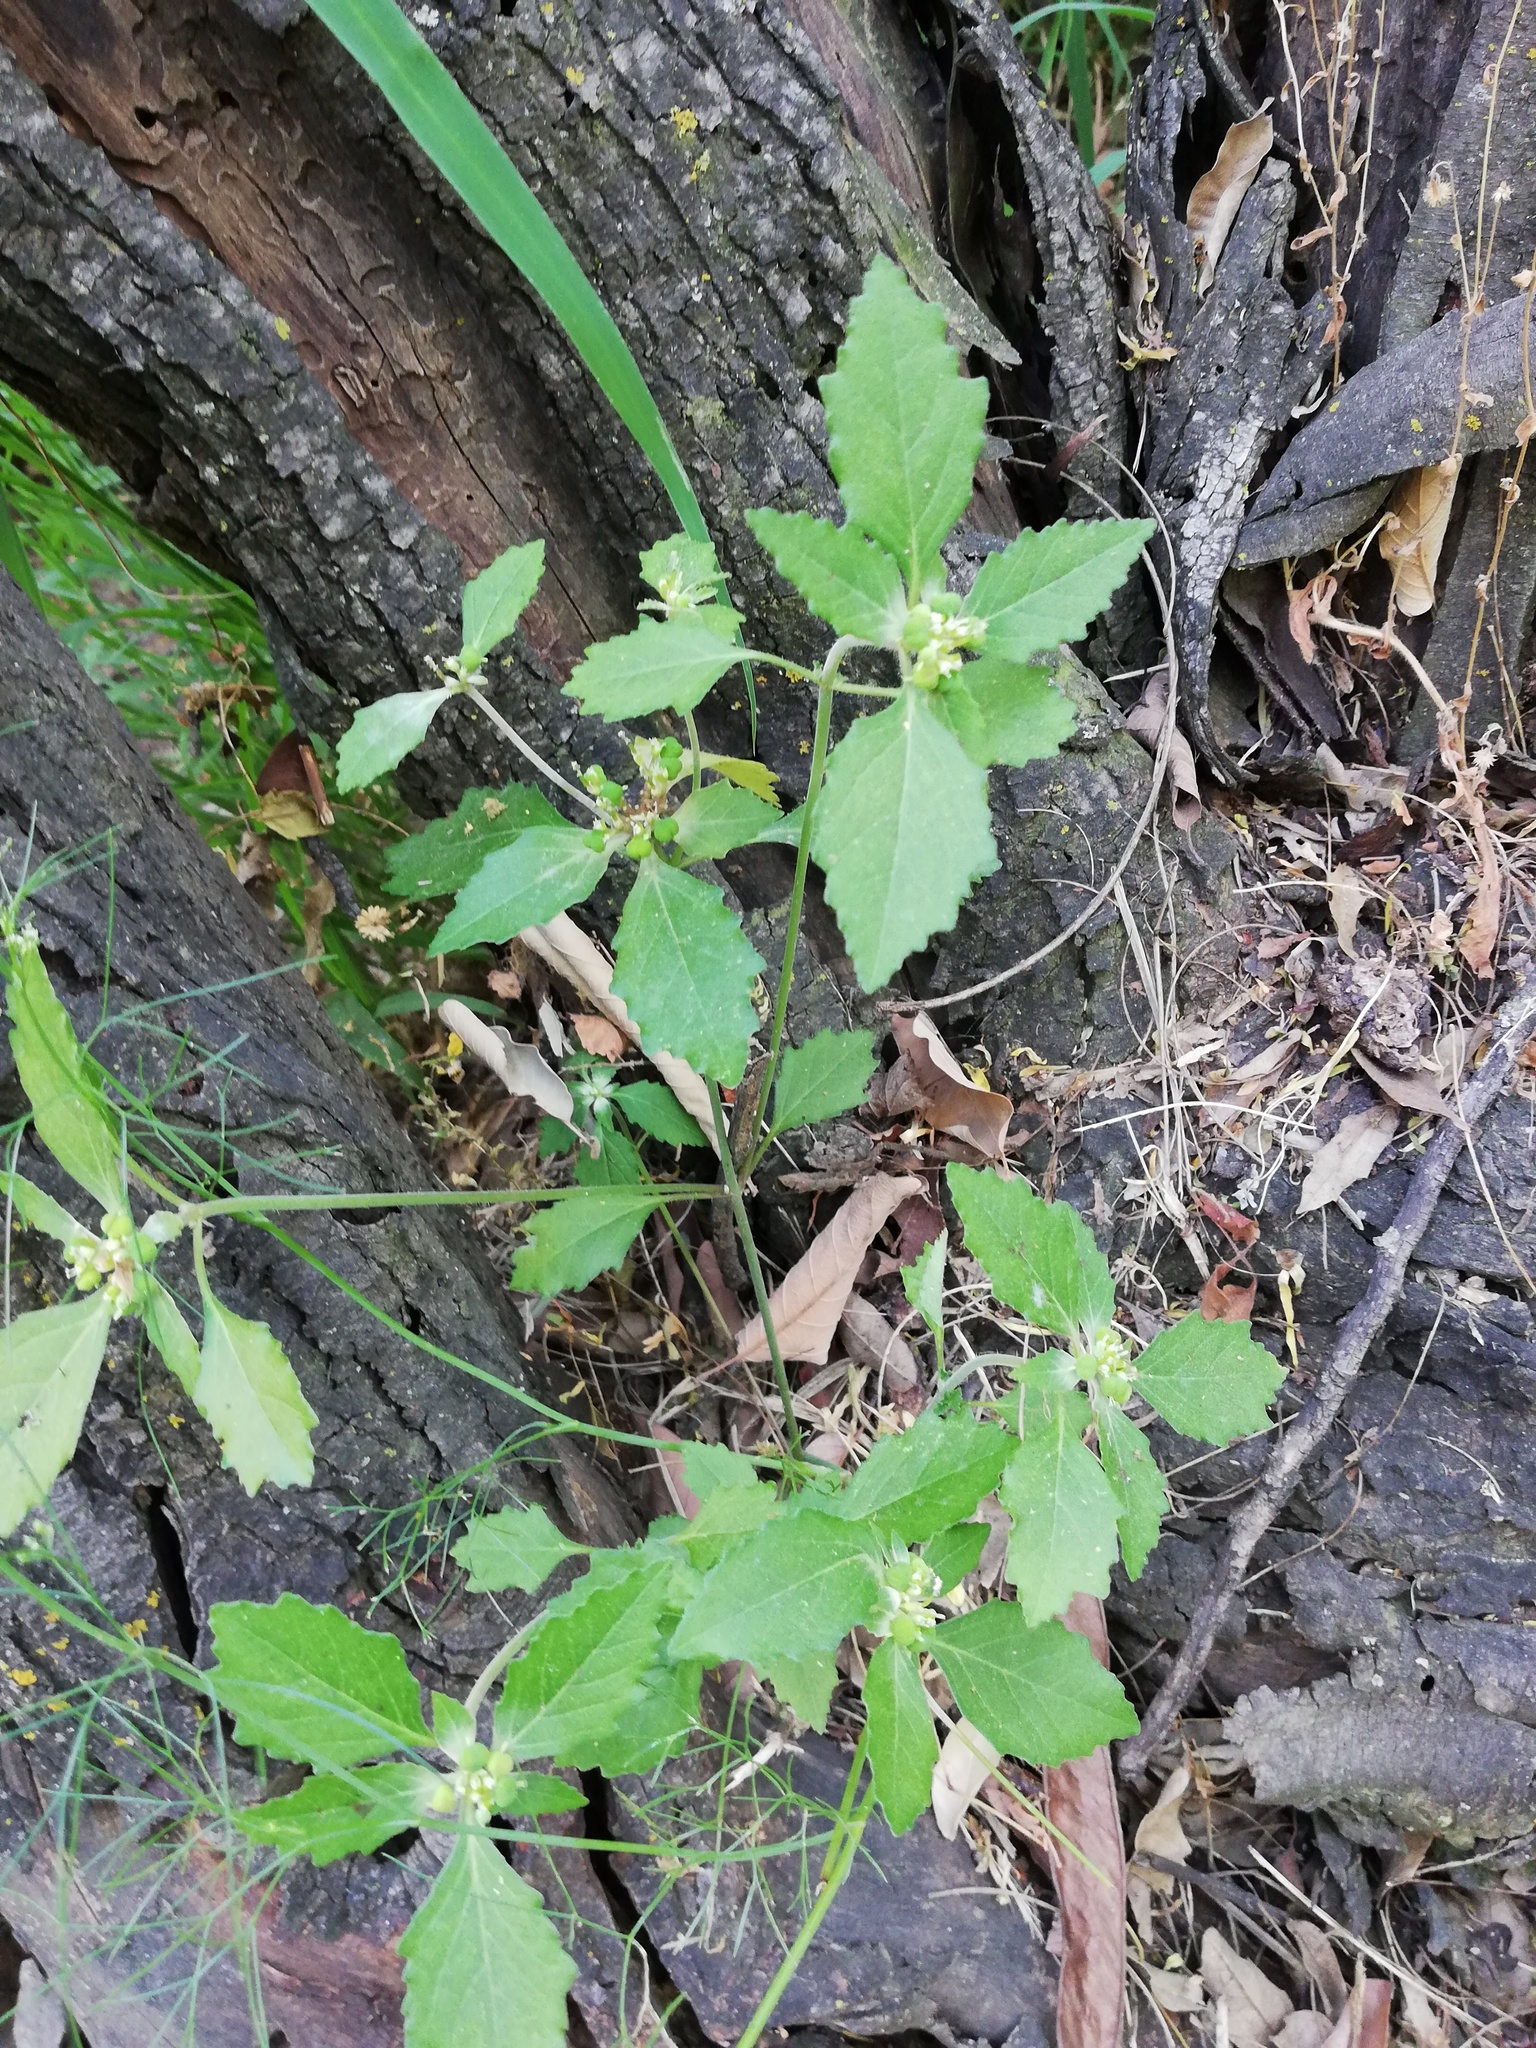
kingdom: Plantae
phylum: Tracheophyta
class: Magnoliopsida
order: Malpighiales
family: Euphorbiaceae
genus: Euphorbia
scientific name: Euphorbia dentata
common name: Dentate spurge
